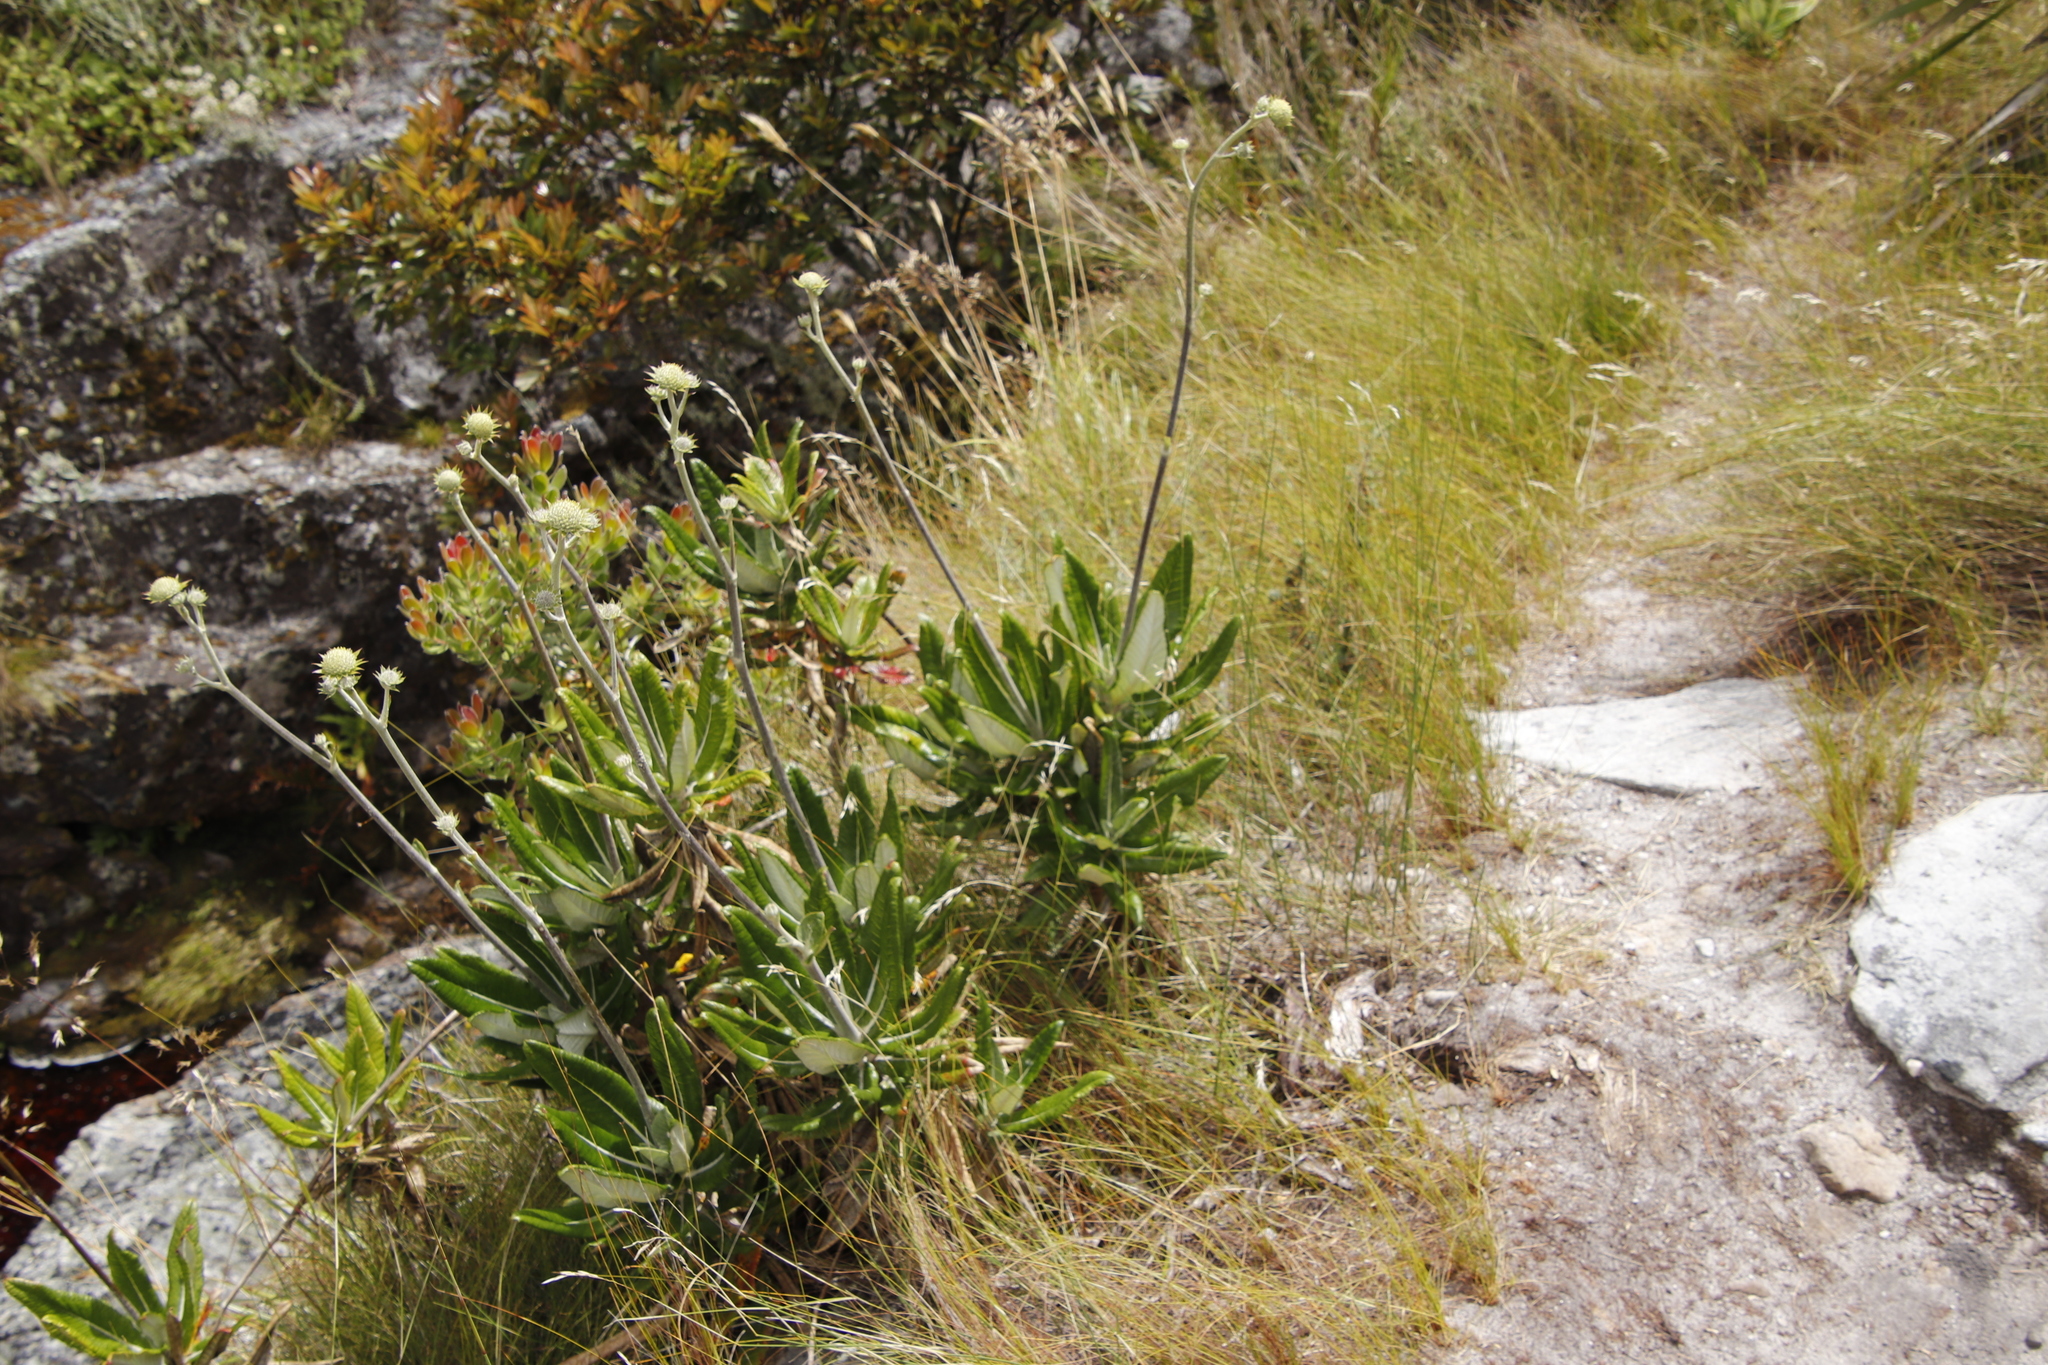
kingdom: Plantae
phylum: Tracheophyta
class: Magnoliopsida
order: Apiales
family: Apiaceae
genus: Hermas
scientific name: Hermas villosa
